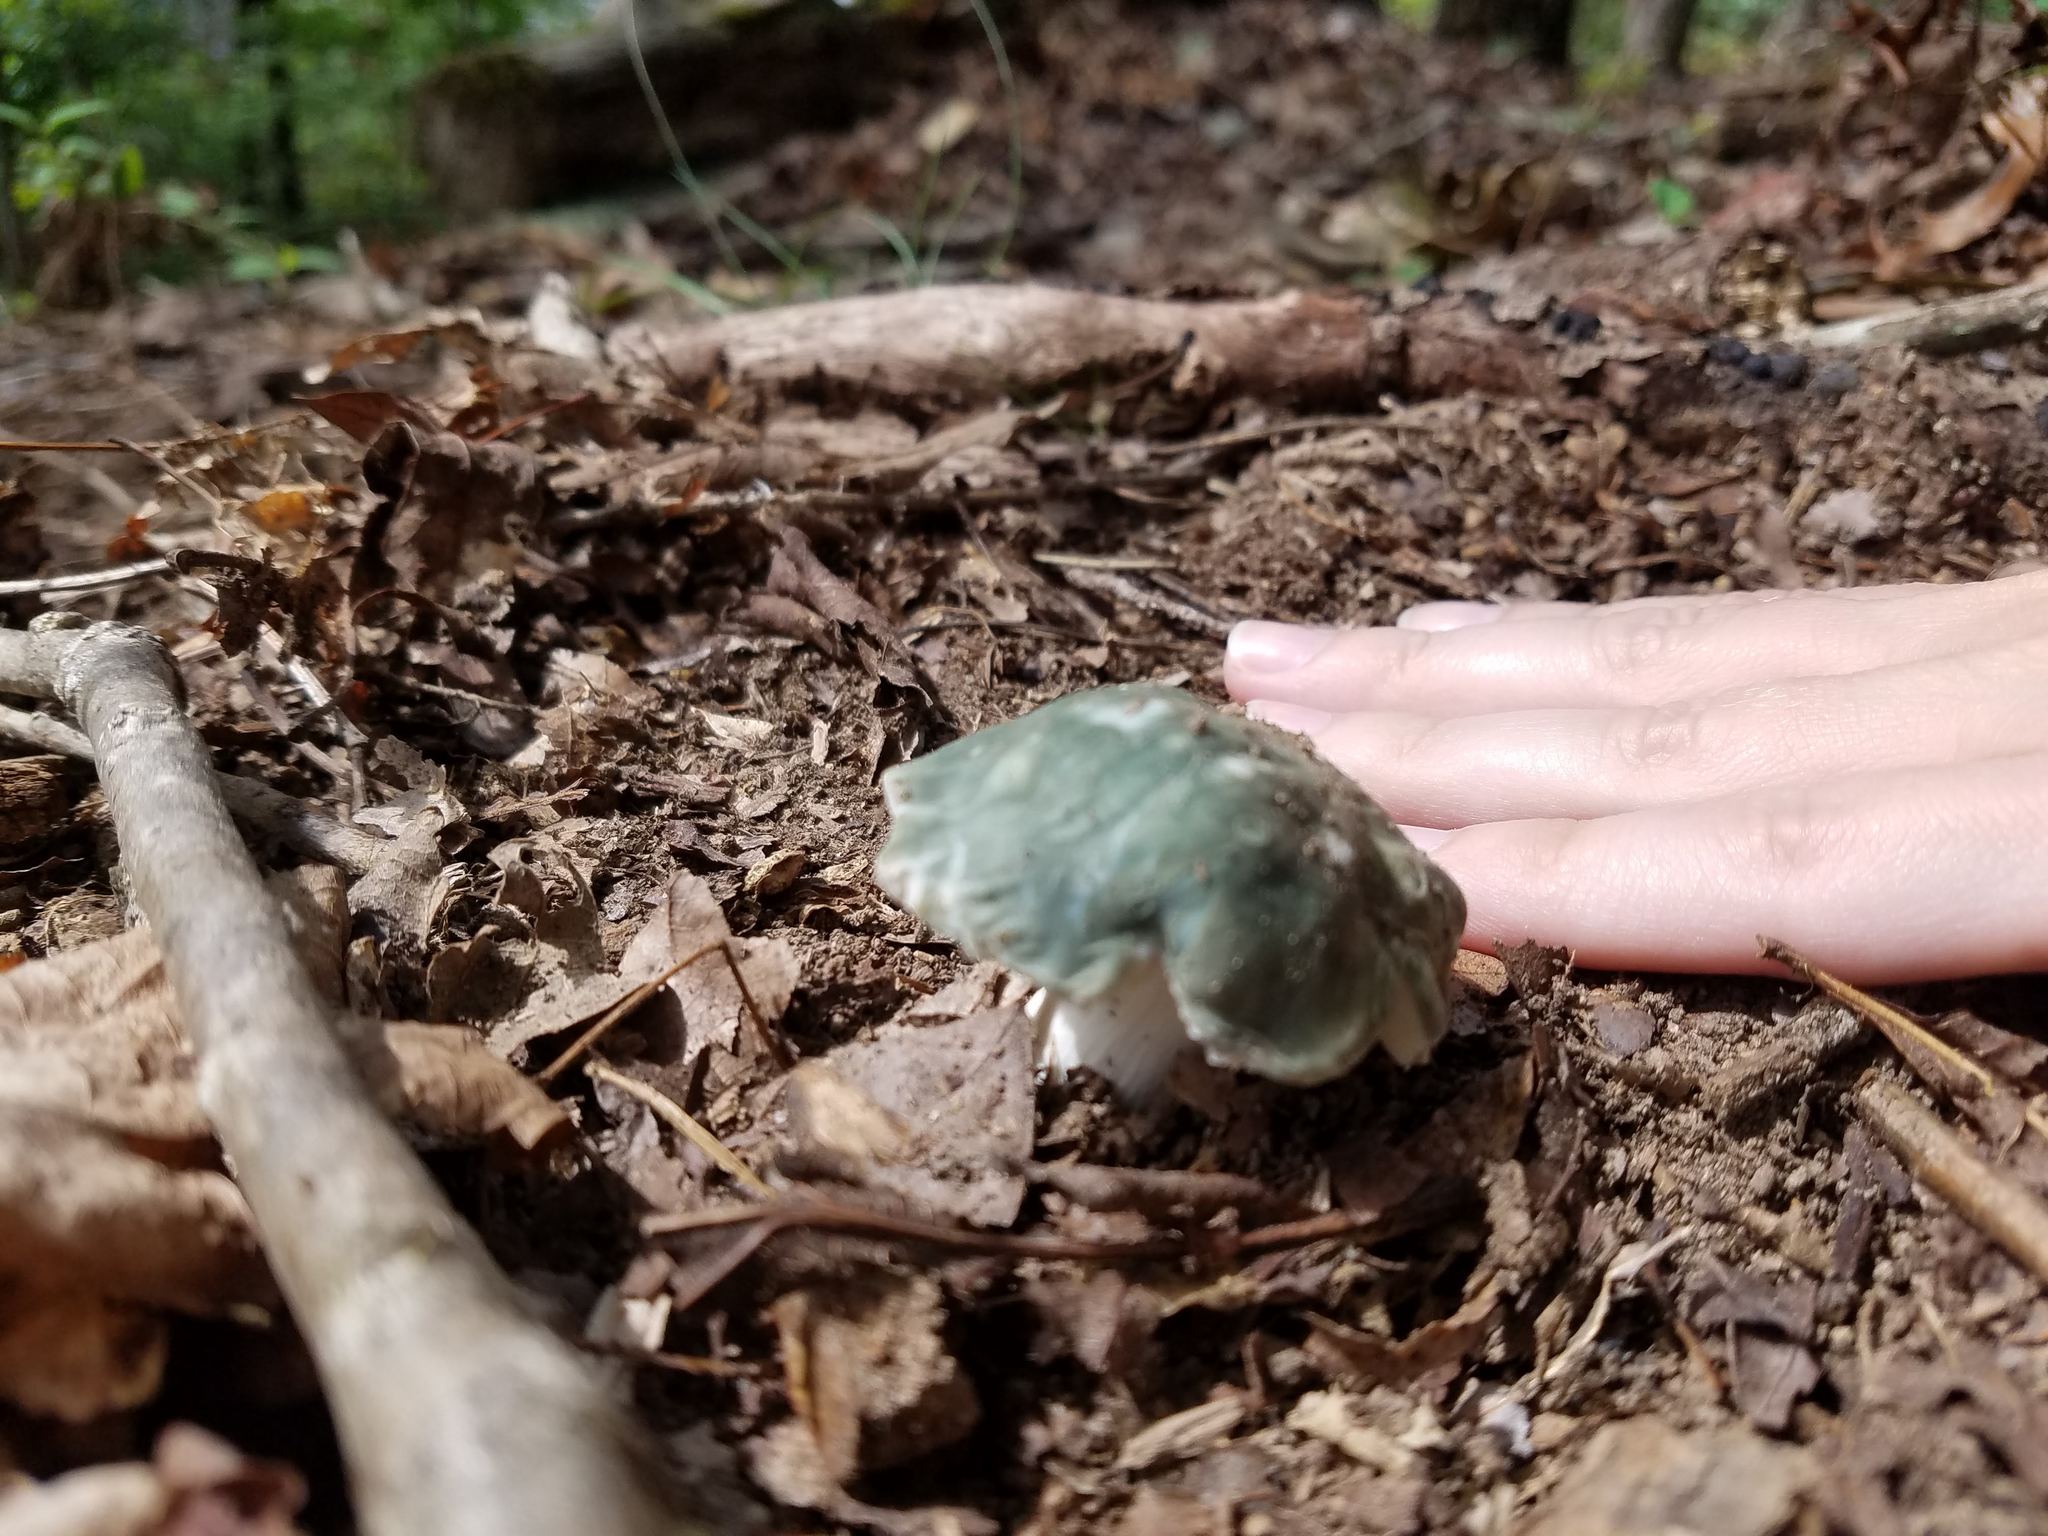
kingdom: Fungi
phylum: Basidiomycota
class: Agaricomycetes
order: Russulales
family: Russulaceae
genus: Russula
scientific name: Russula parvovirescens
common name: Blue-green cracking russula
